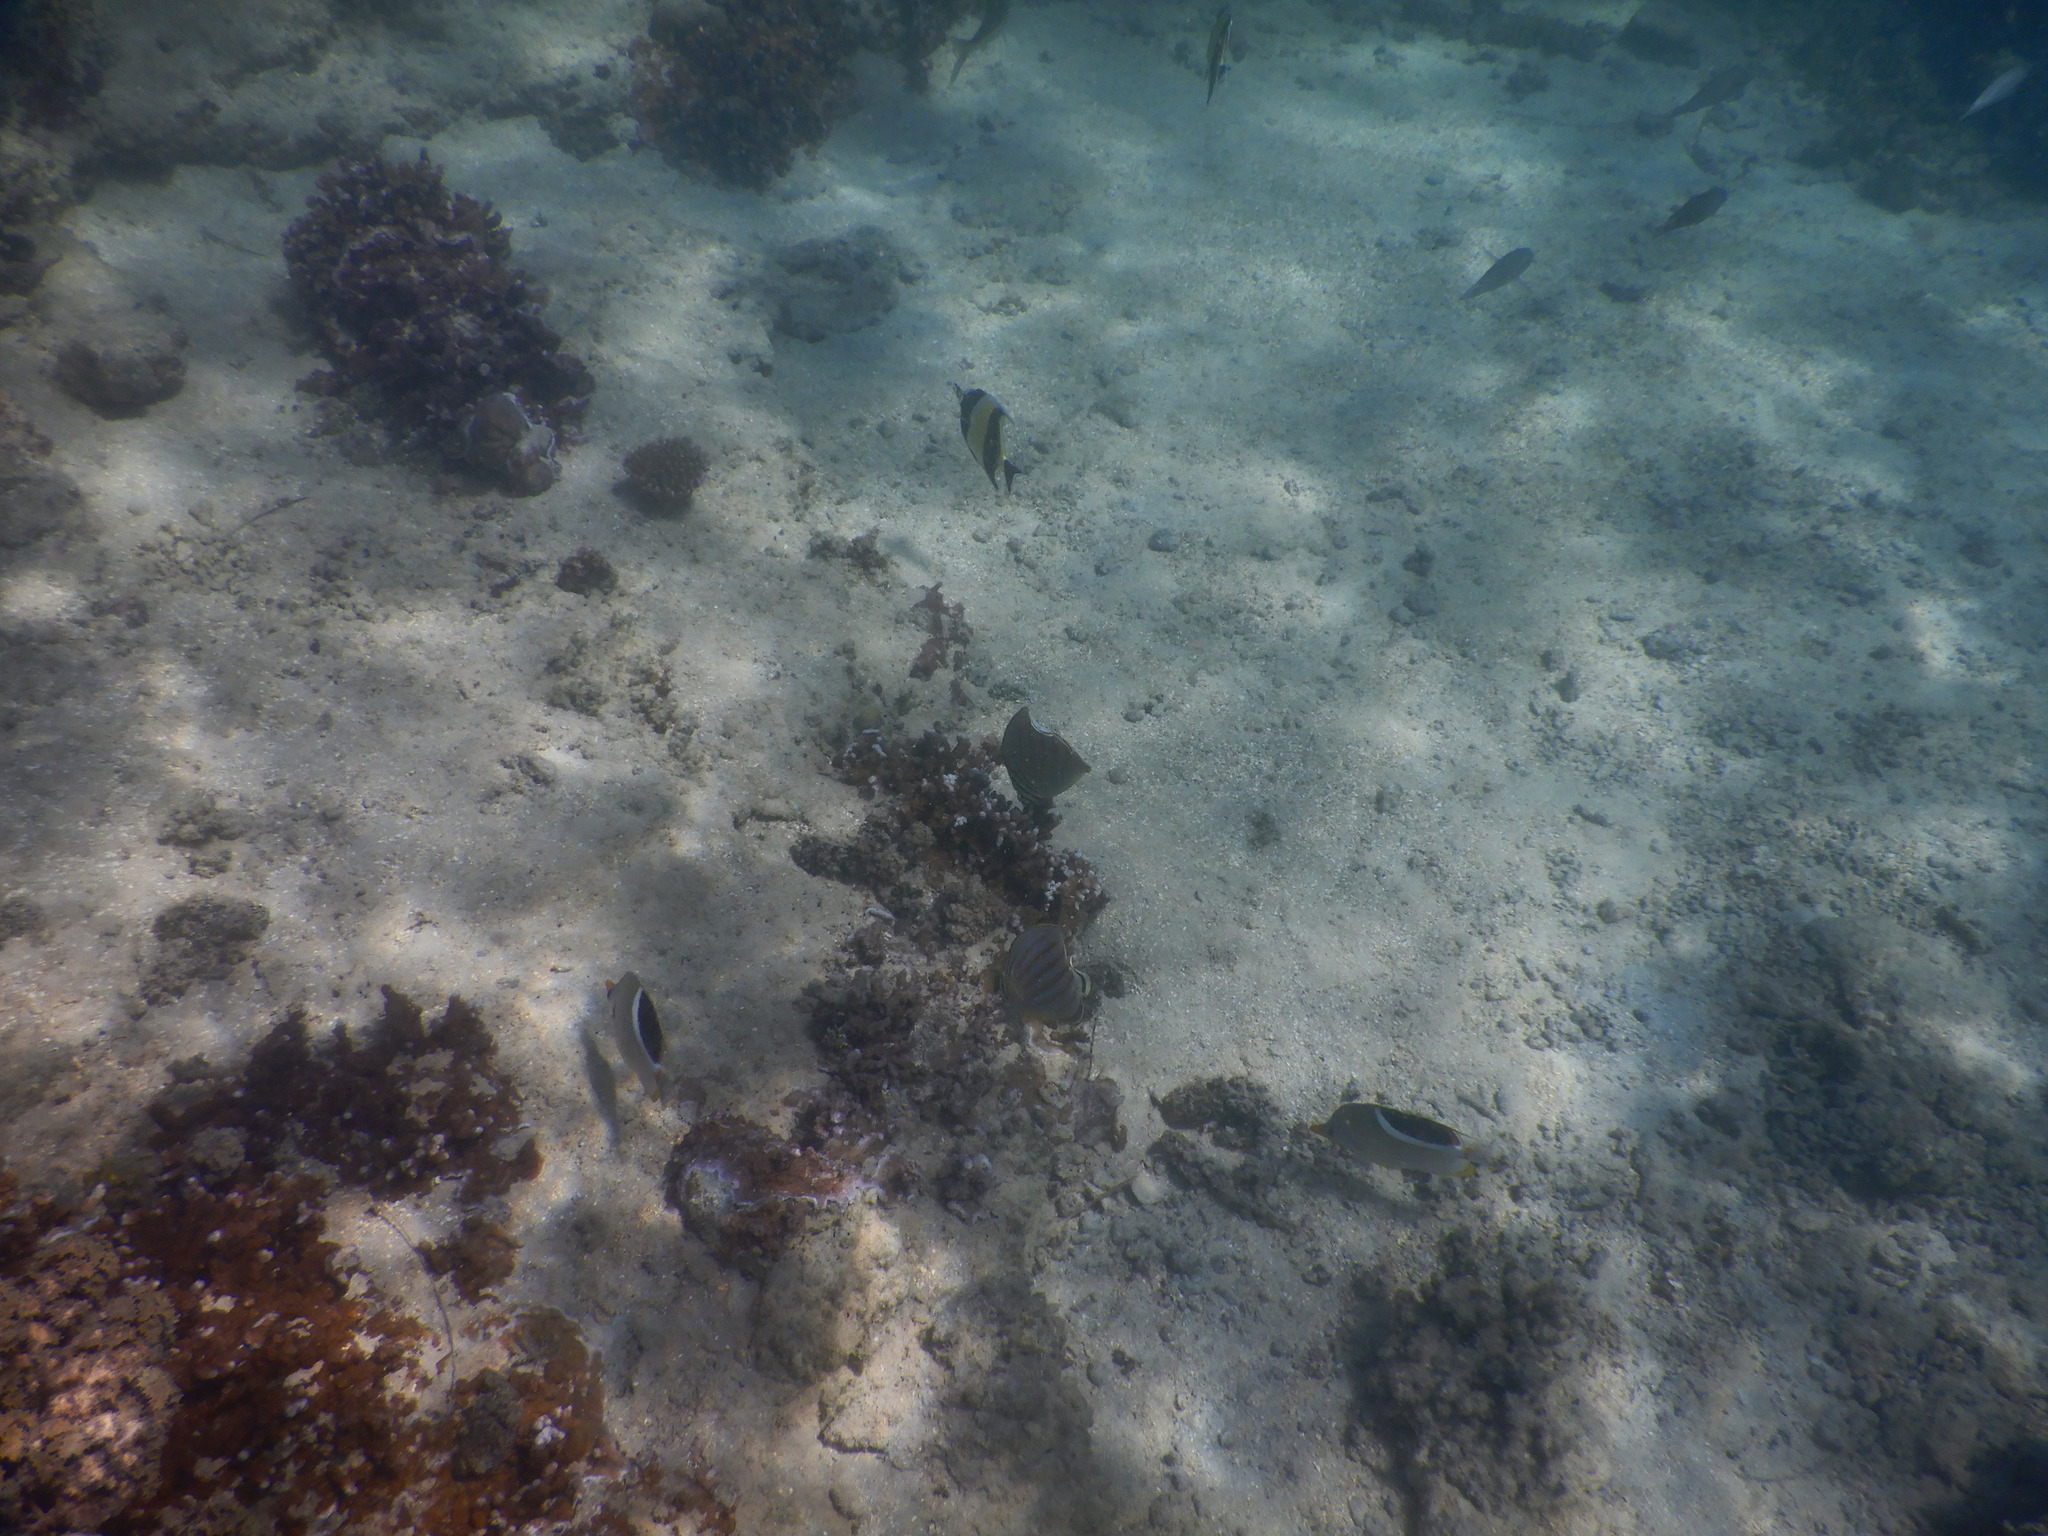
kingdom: Animalia
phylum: Chordata
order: Perciformes
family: Chaetodontidae
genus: Chaetodon
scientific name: Chaetodon ephippium
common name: Saddled butterflyfish
